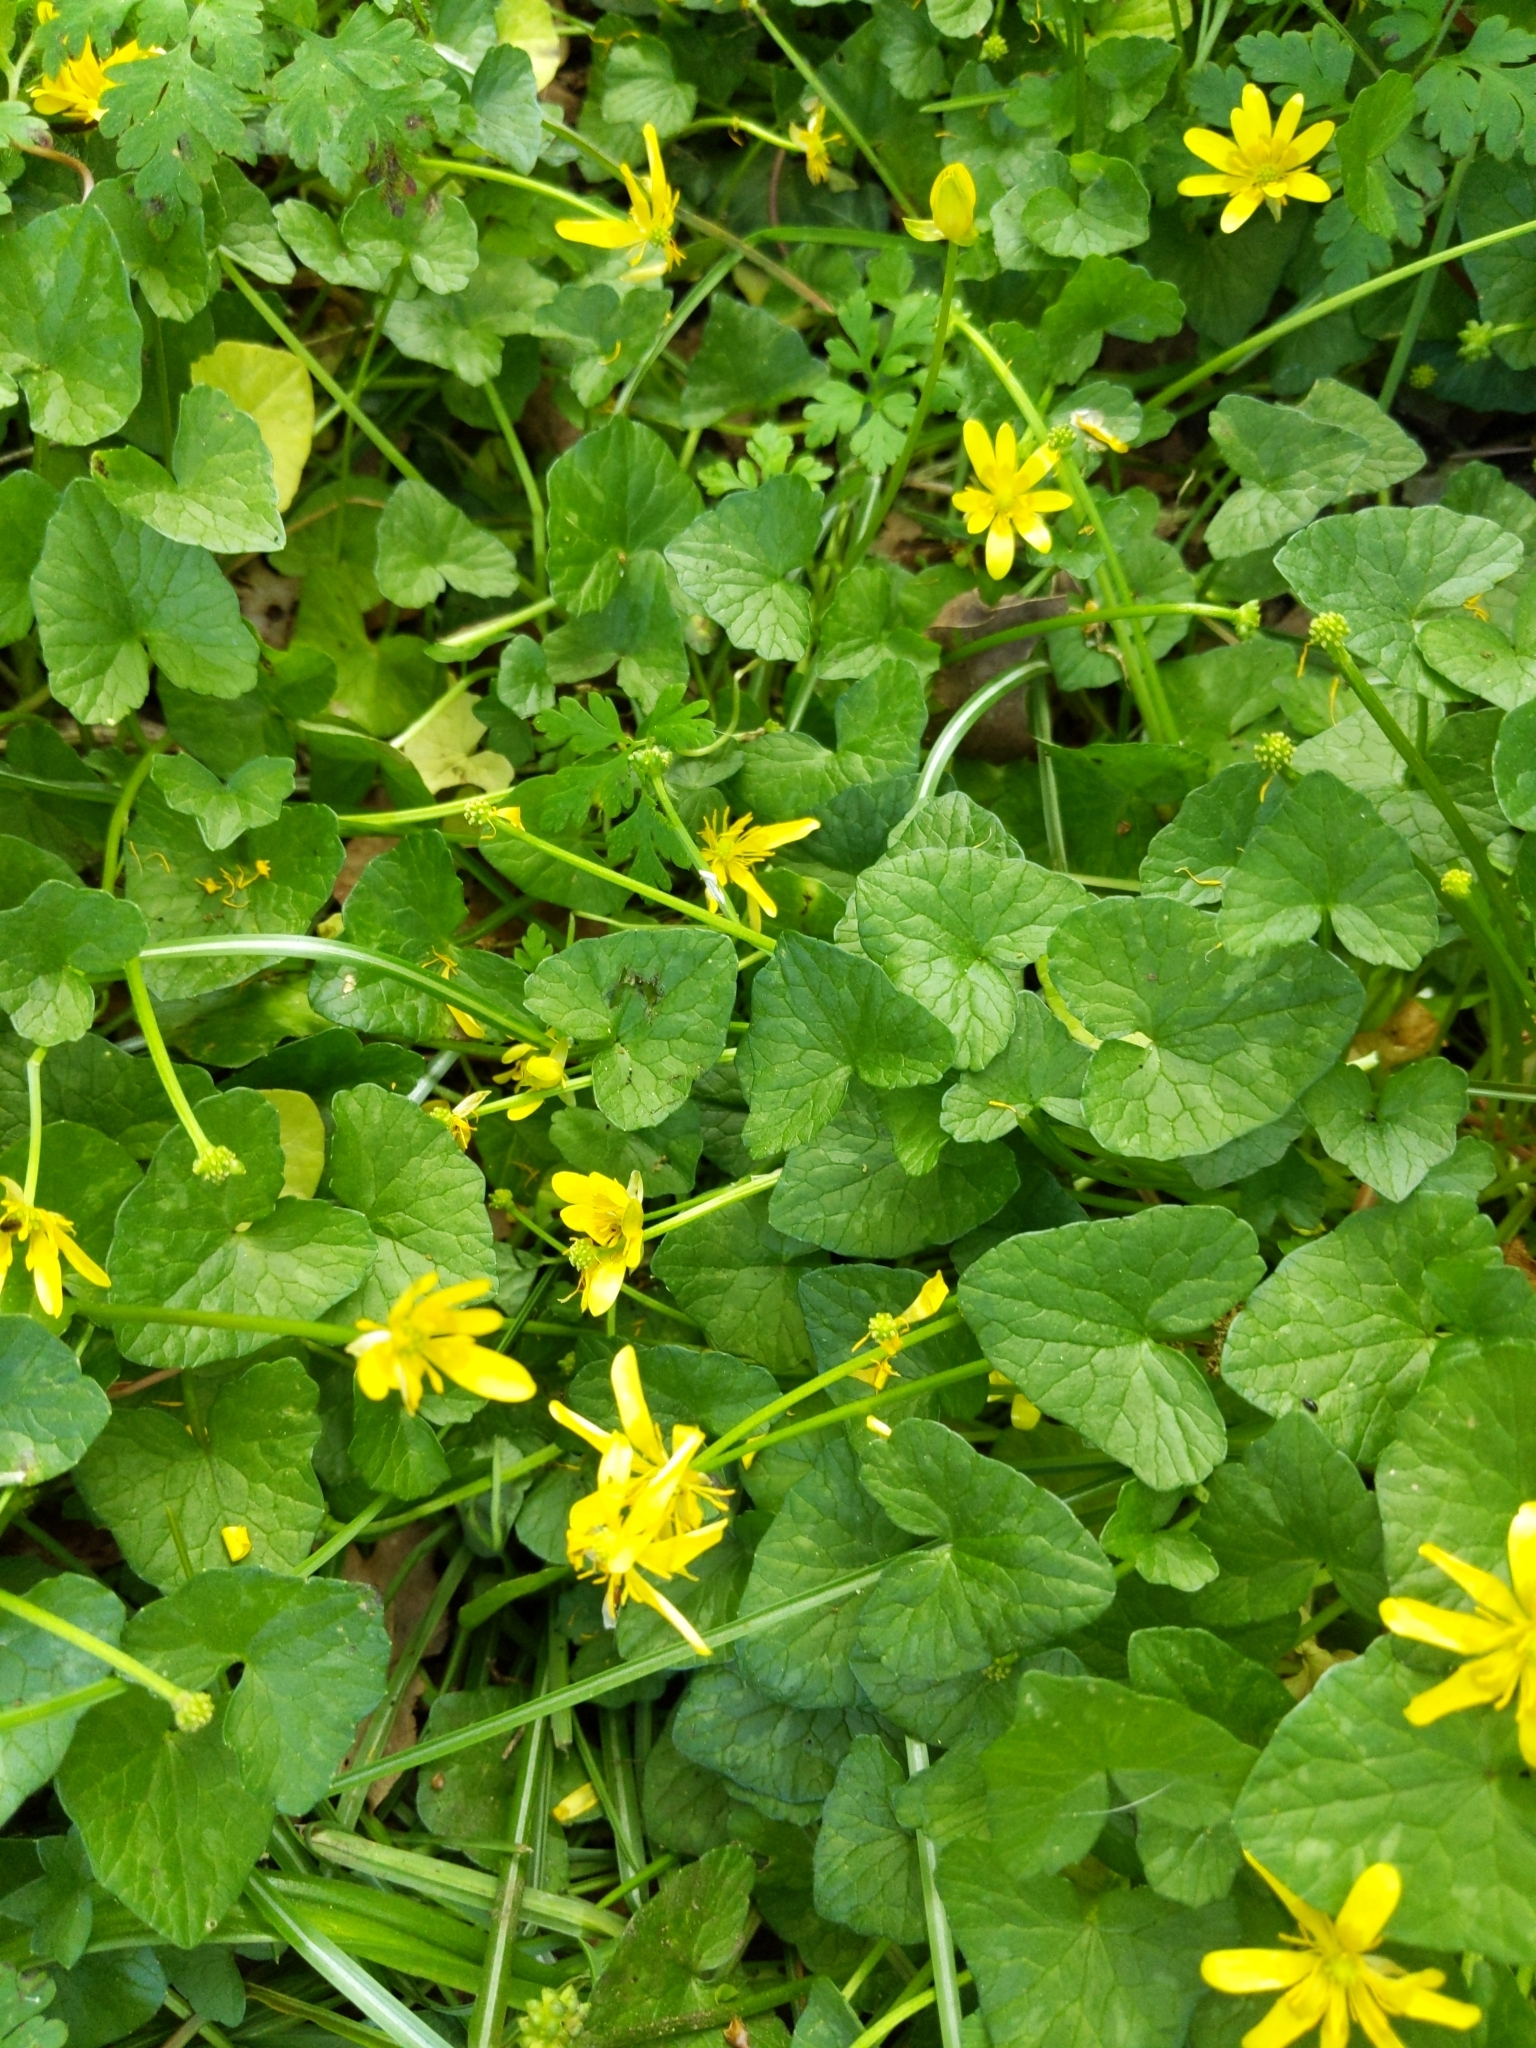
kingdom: Plantae
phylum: Tracheophyta
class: Magnoliopsida
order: Ranunculales
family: Ranunculaceae
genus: Ficaria
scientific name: Ficaria verna
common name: Lesser celandine
